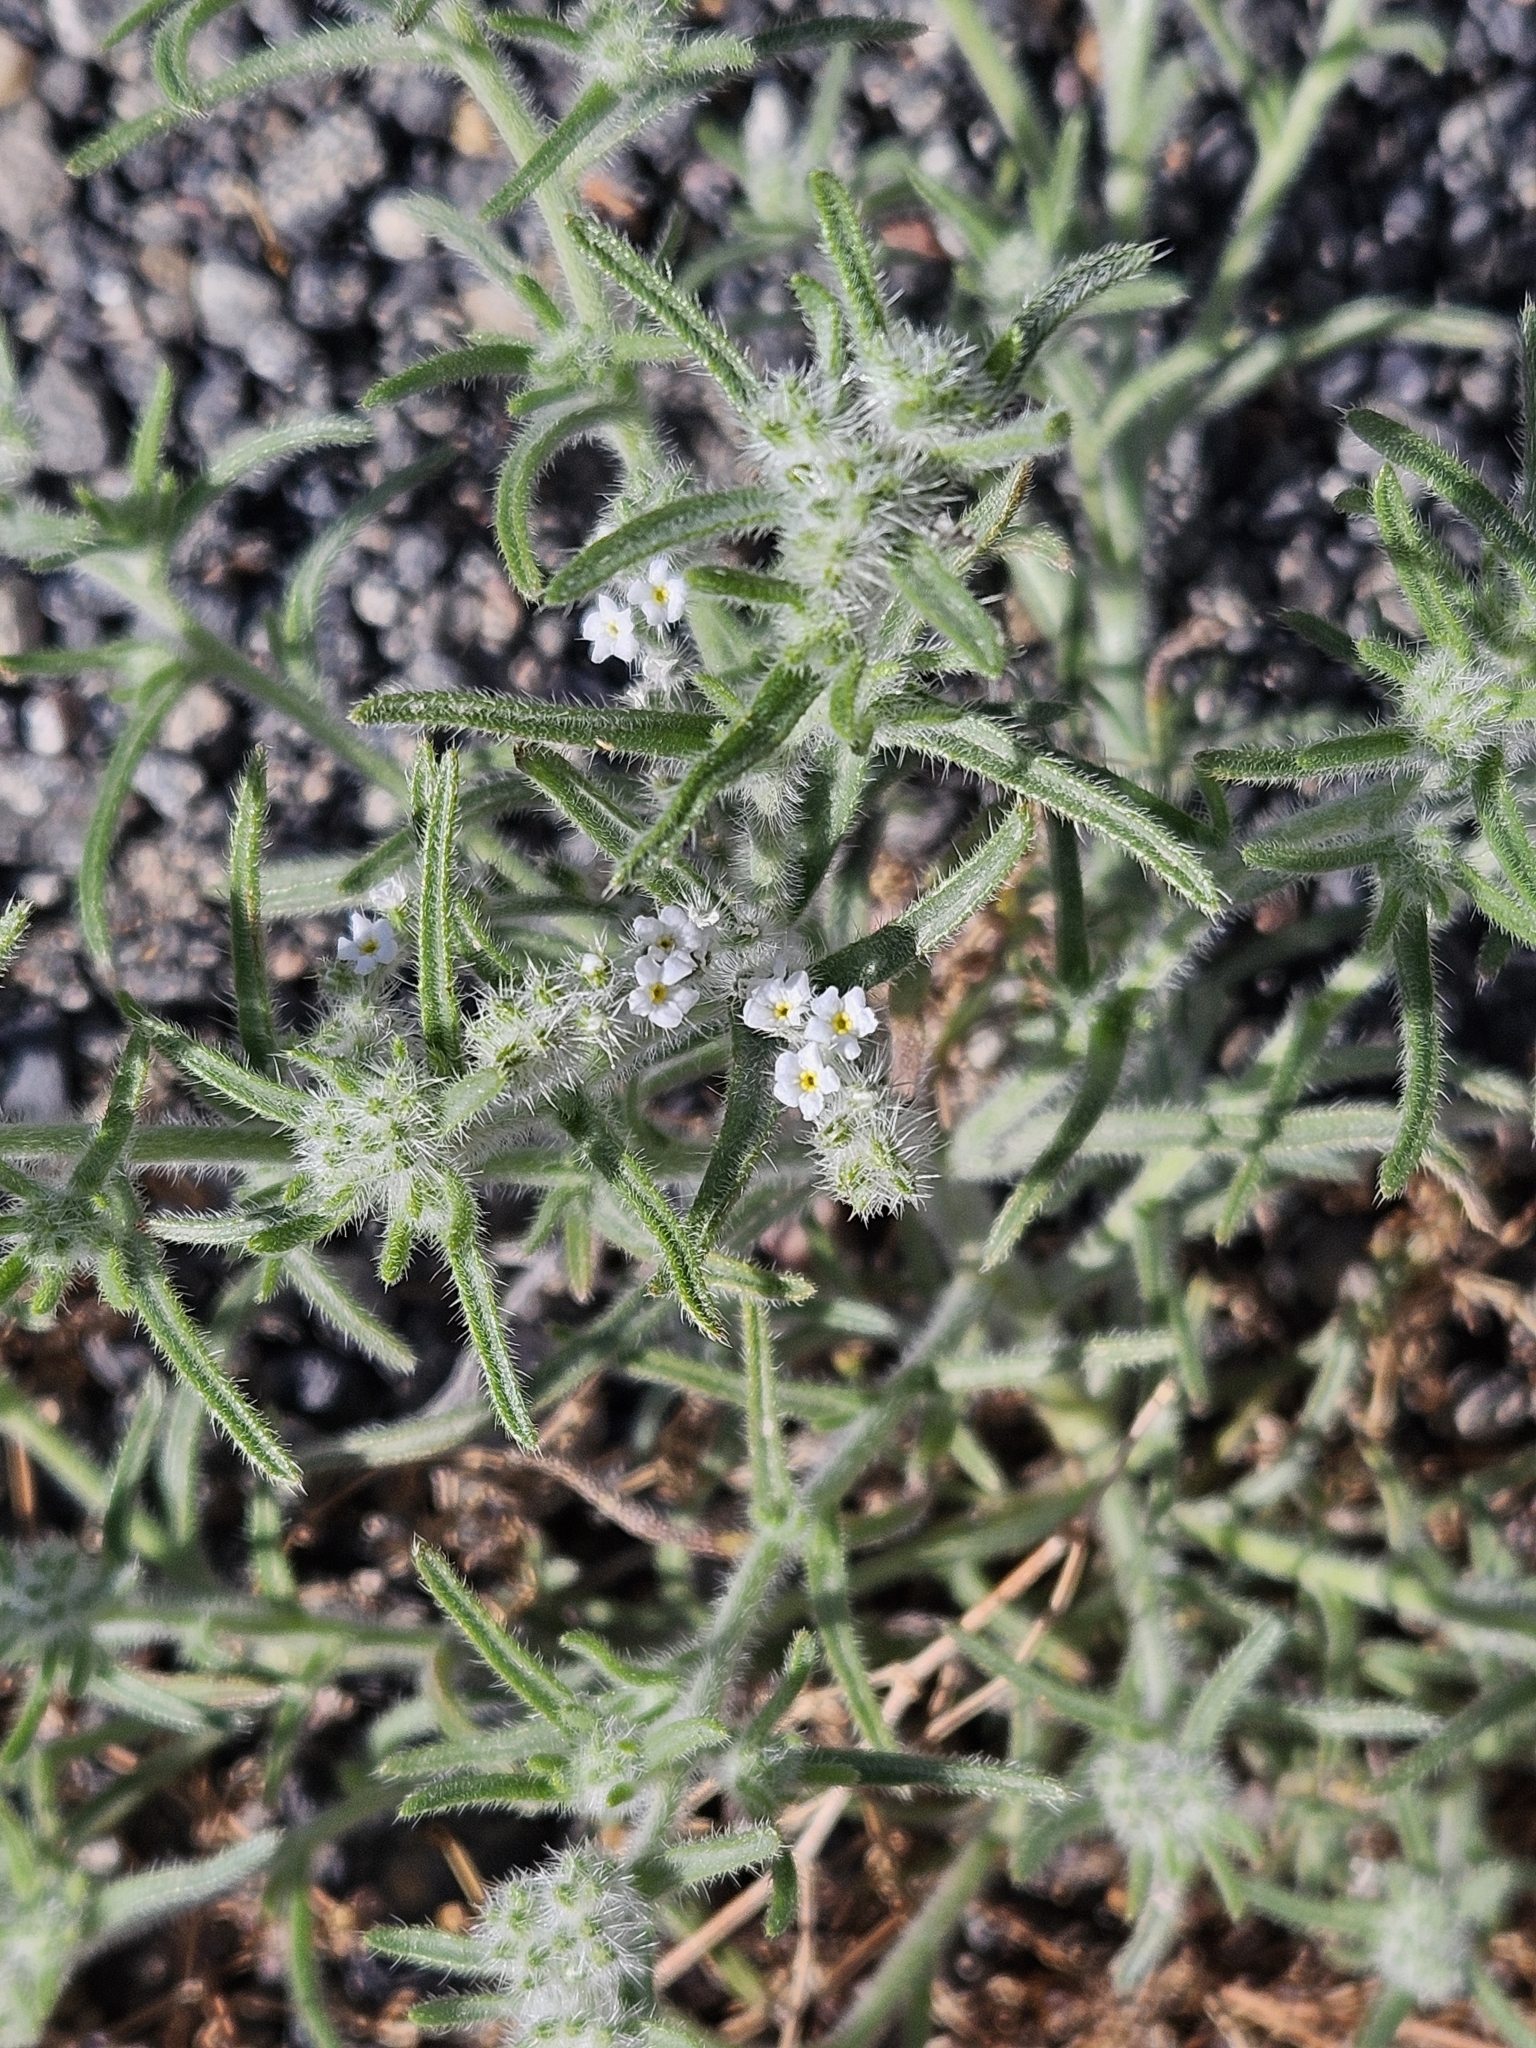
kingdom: Plantae
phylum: Tracheophyta
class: Magnoliopsida
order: Boraginales
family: Boraginaceae
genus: Johnstonella
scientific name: Johnstonella angustifolia
